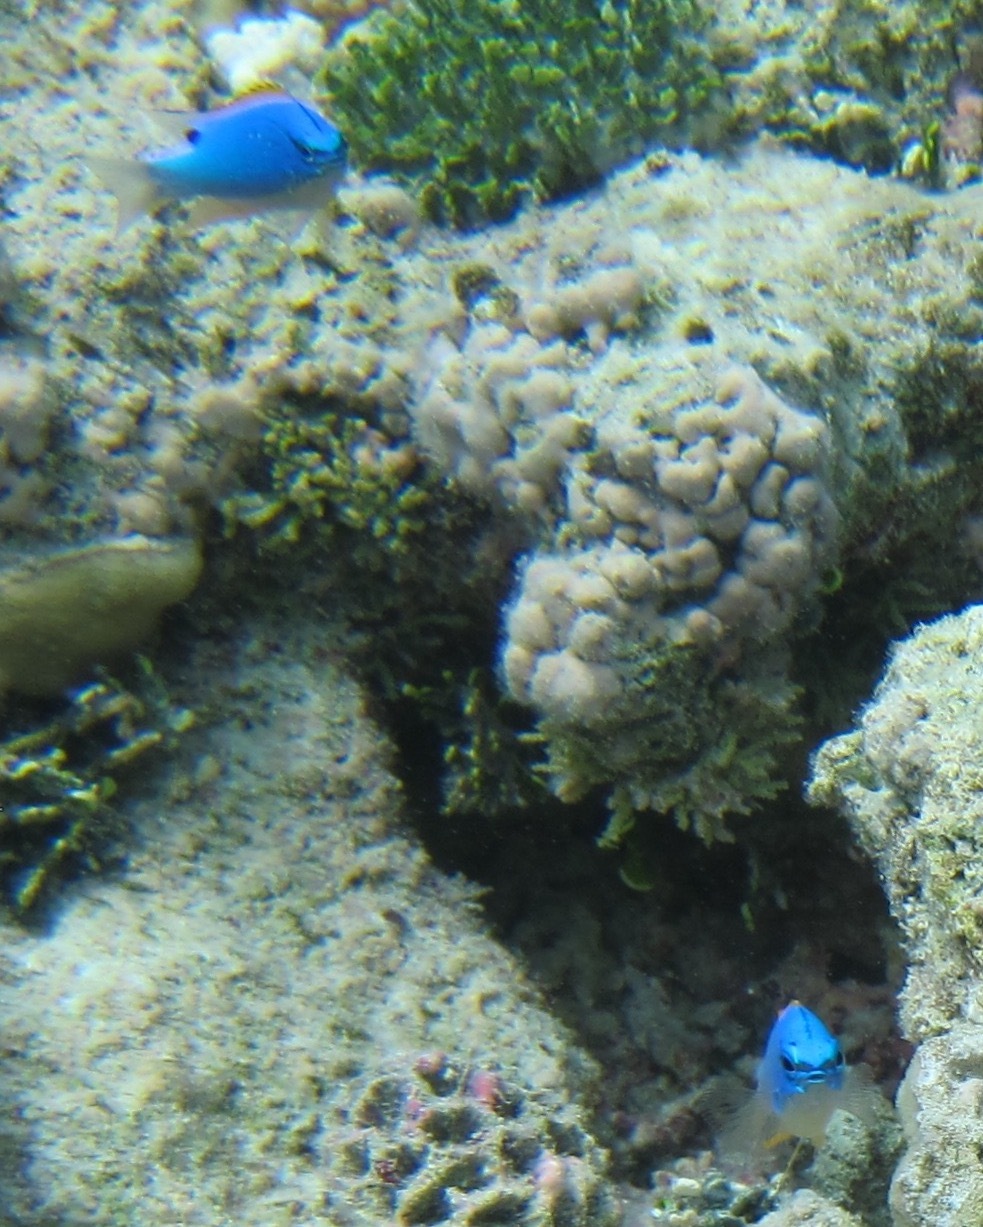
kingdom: Animalia
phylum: Chordata
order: Perciformes
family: Pomacentridae
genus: Chrysiptera
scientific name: Chrysiptera taupou
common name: Fiji damsel
